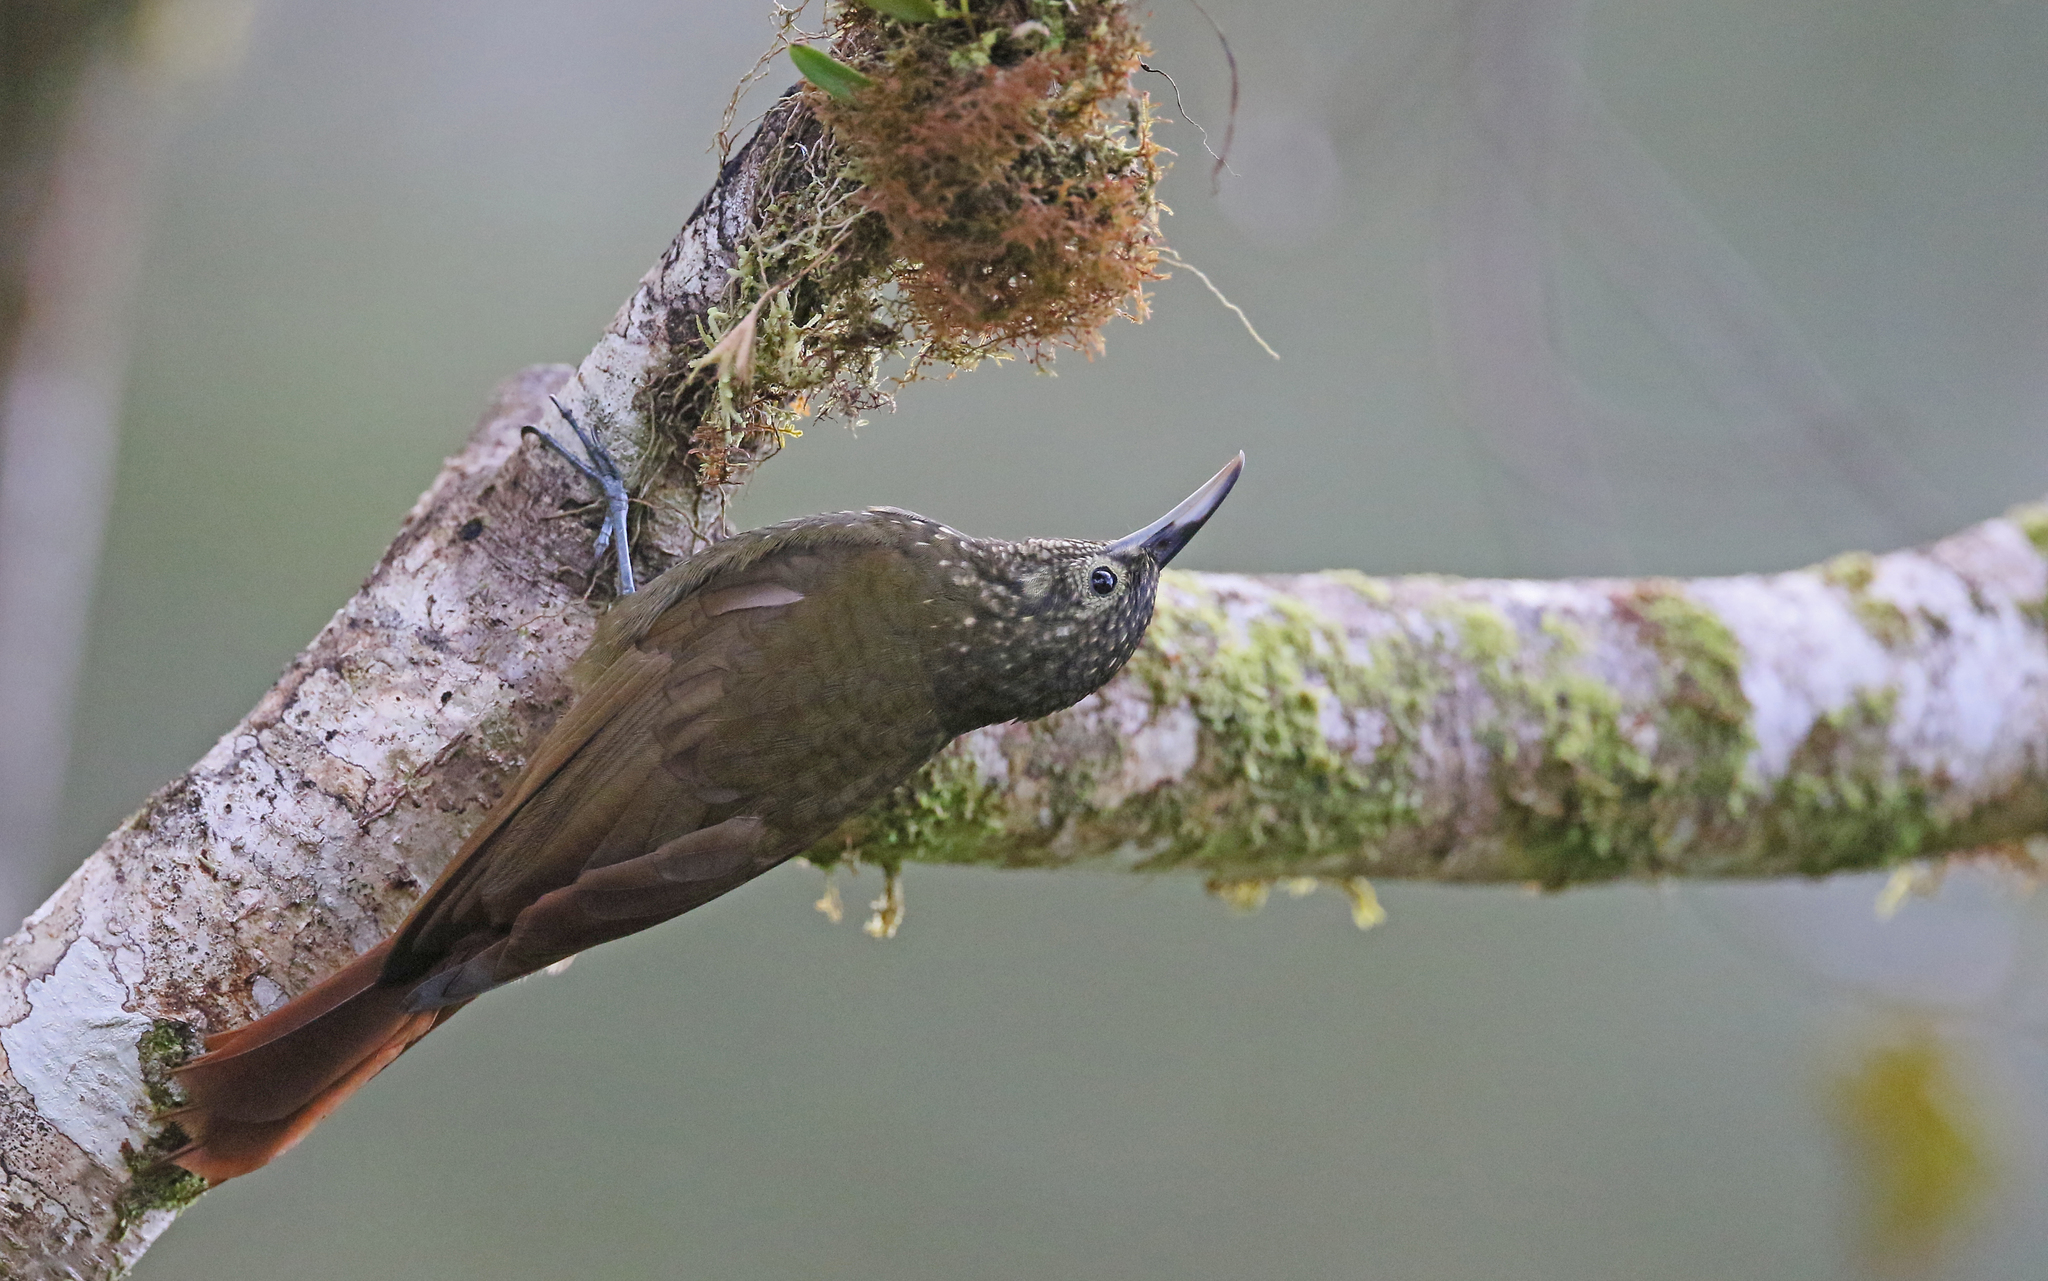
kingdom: Animalia
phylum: Chordata
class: Aves
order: Passeriformes
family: Furnariidae
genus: Xiphorhynchus
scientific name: Xiphorhynchus triangularis
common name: Olive-backed woodcreeper
